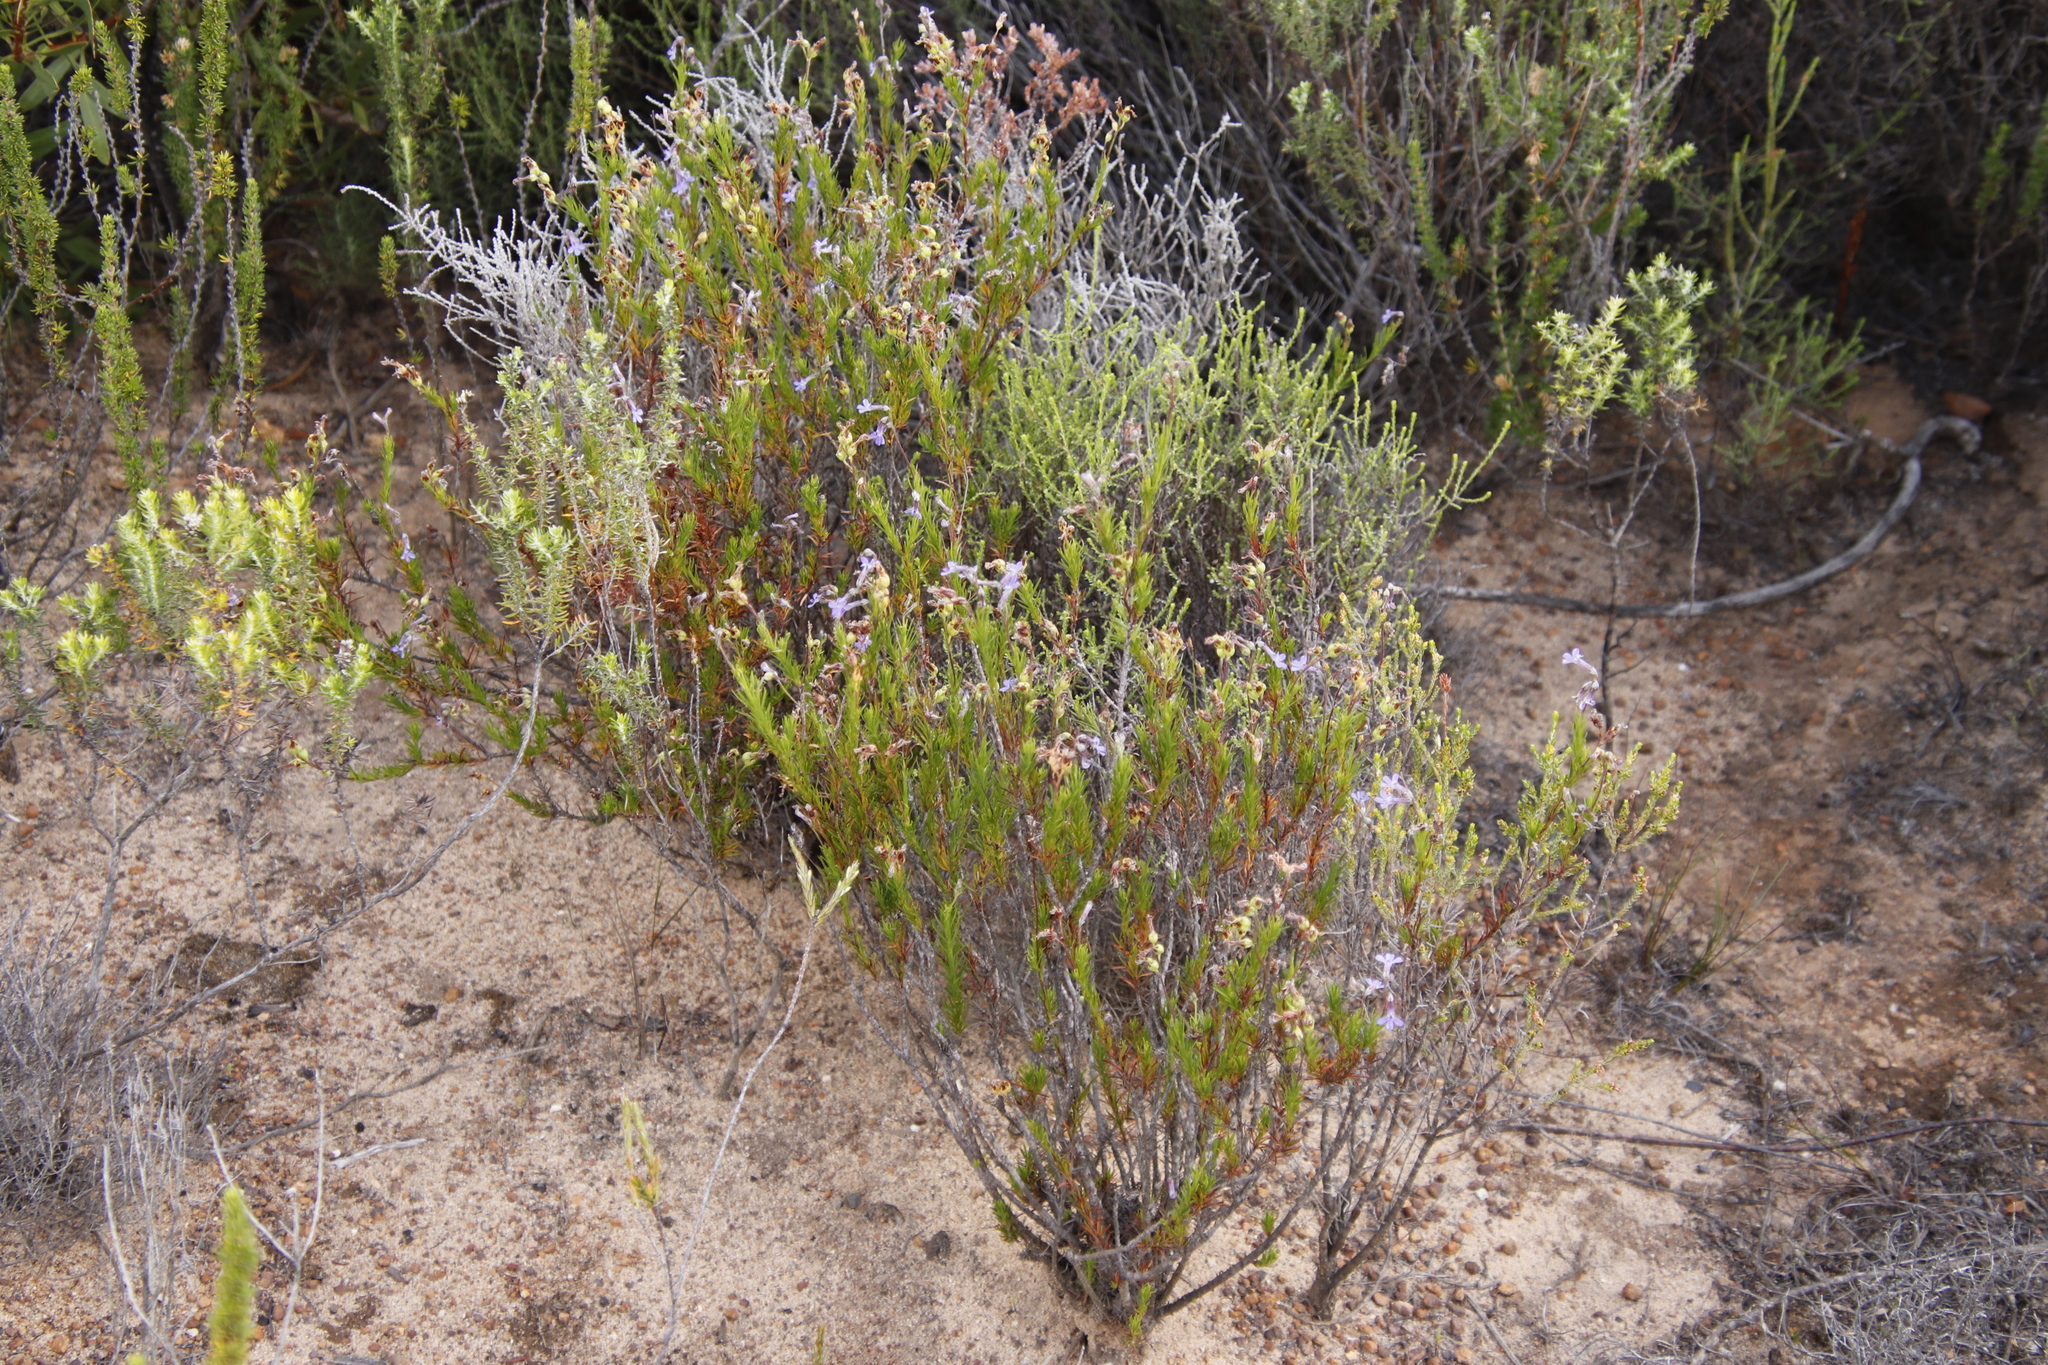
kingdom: Plantae
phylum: Tracheophyta
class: Magnoliopsida
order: Asterales
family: Campanulaceae
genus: Lobelia
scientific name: Lobelia pinifolia
